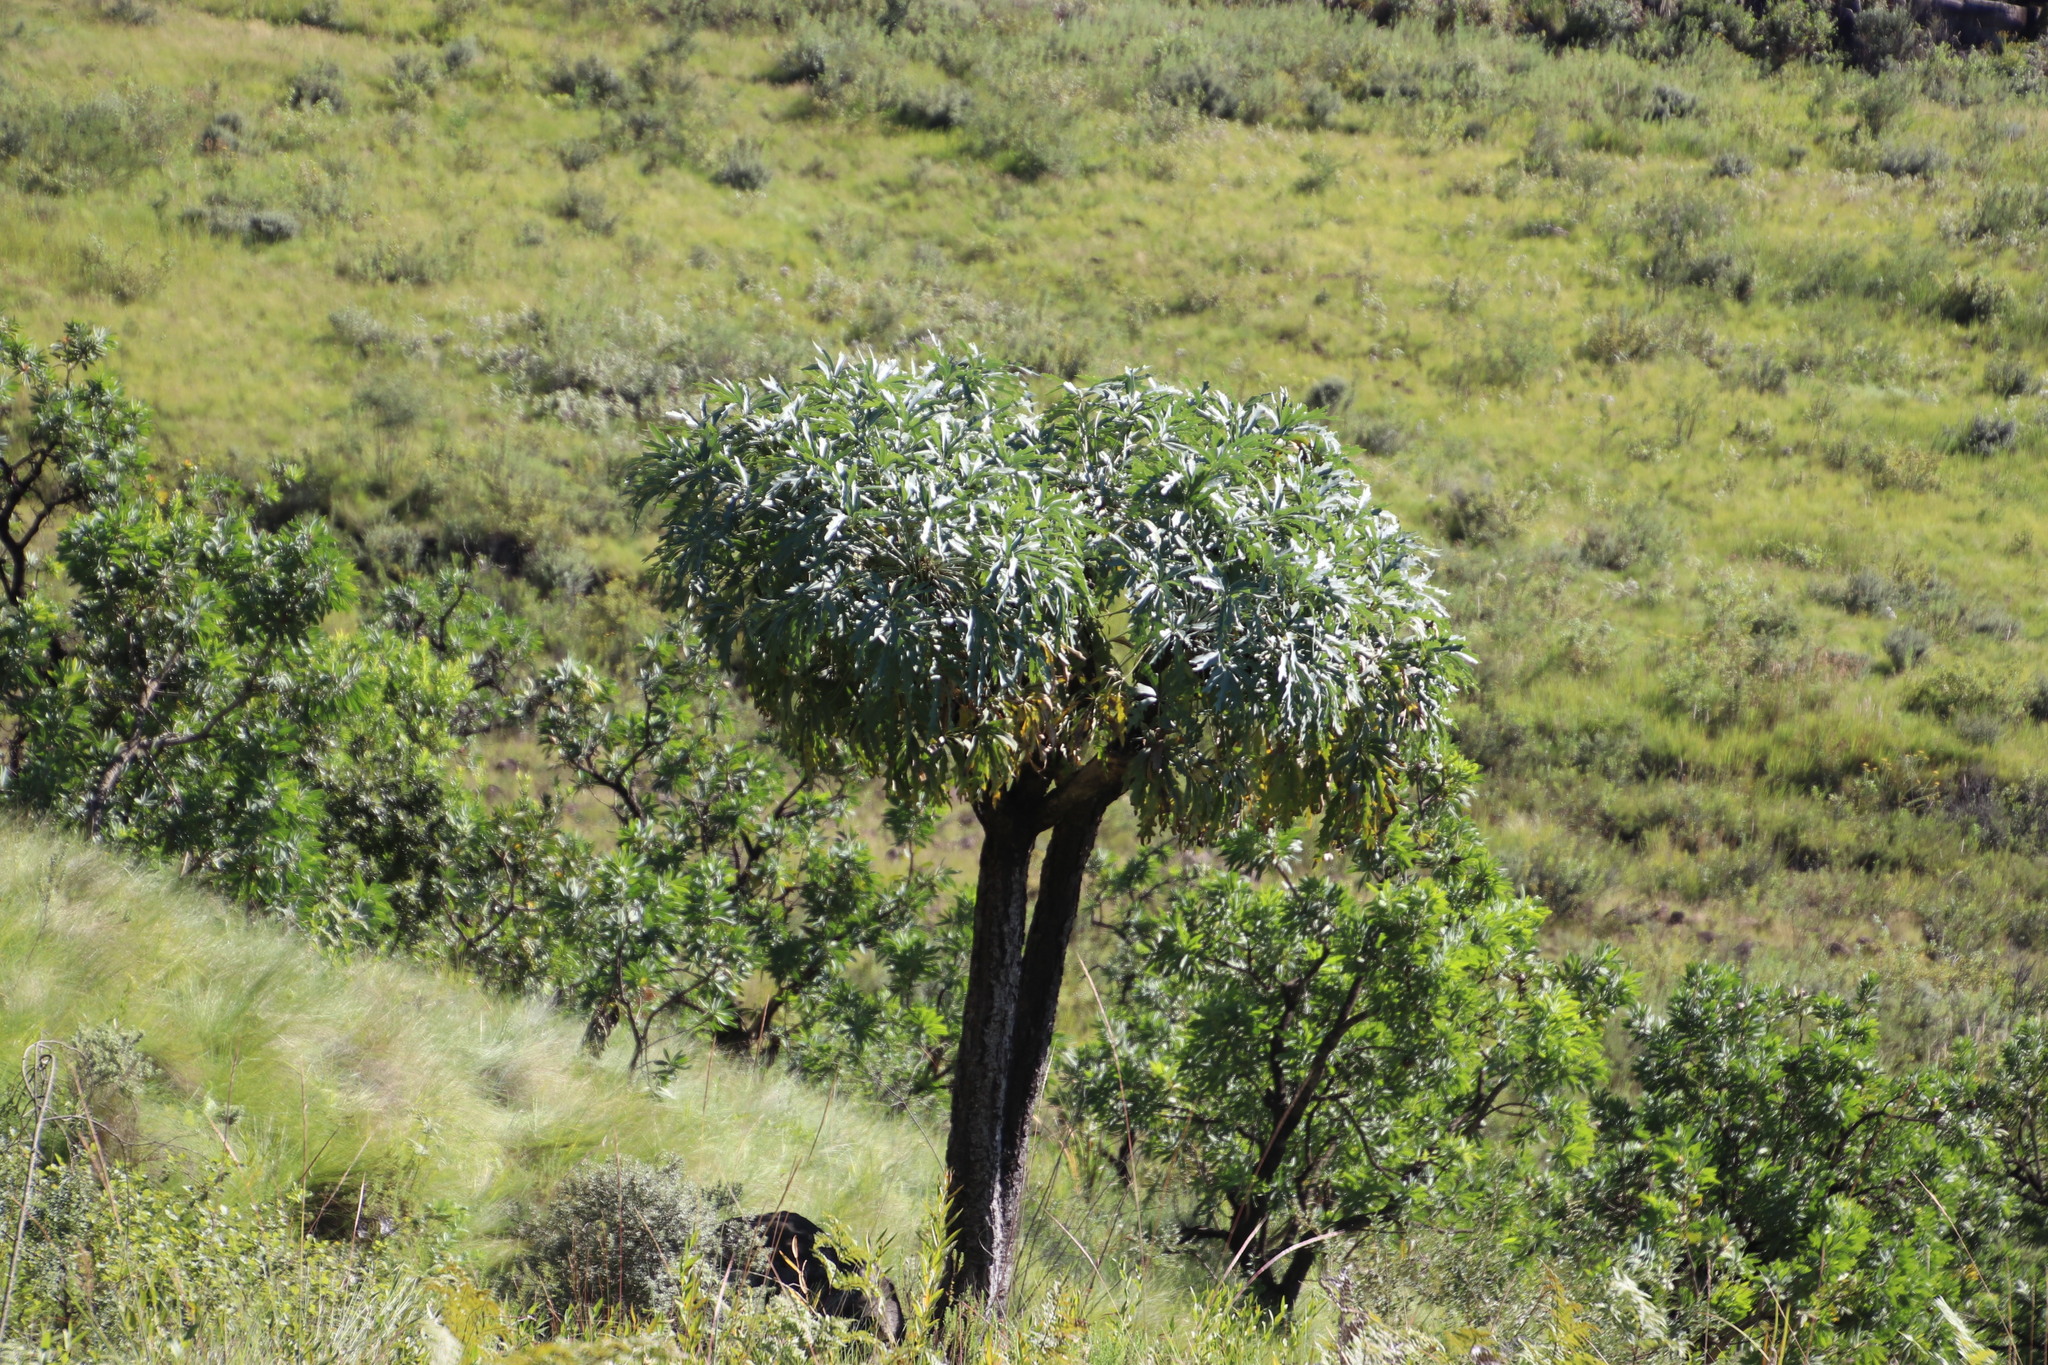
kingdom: Plantae
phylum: Tracheophyta
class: Magnoliopsida
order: Apiales
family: Araliaceae
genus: Cussonia
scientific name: Cussonia paniculata
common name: Cabbagetree
